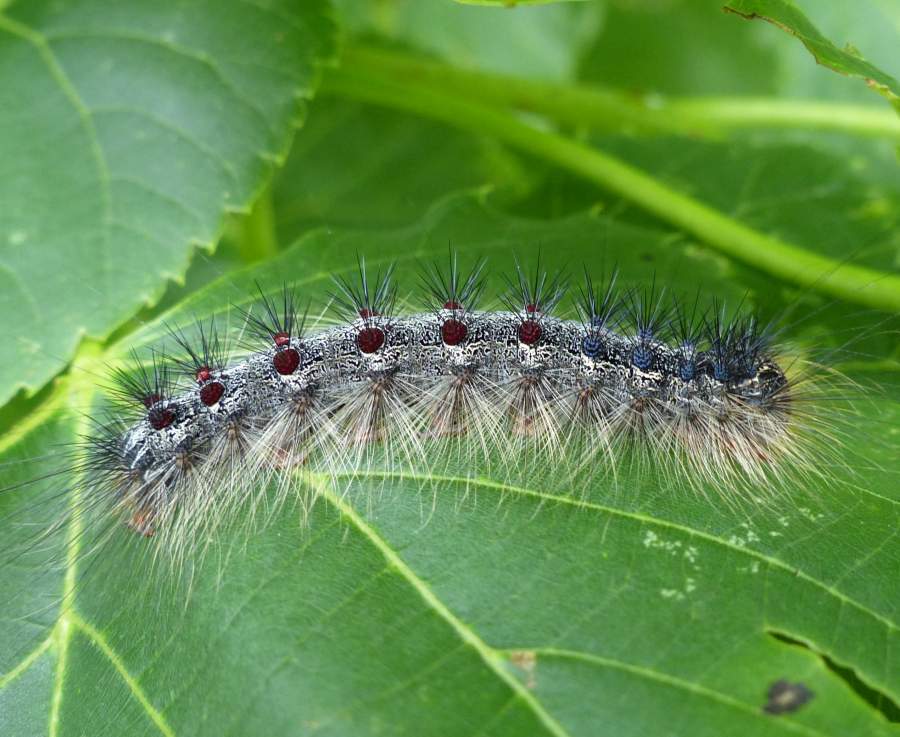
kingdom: Animalia
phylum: Arthropoda
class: Insecta
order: Lepidoptera
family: Erebidae
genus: Lymantria
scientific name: Lymantria dispar
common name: Gypsy moth
